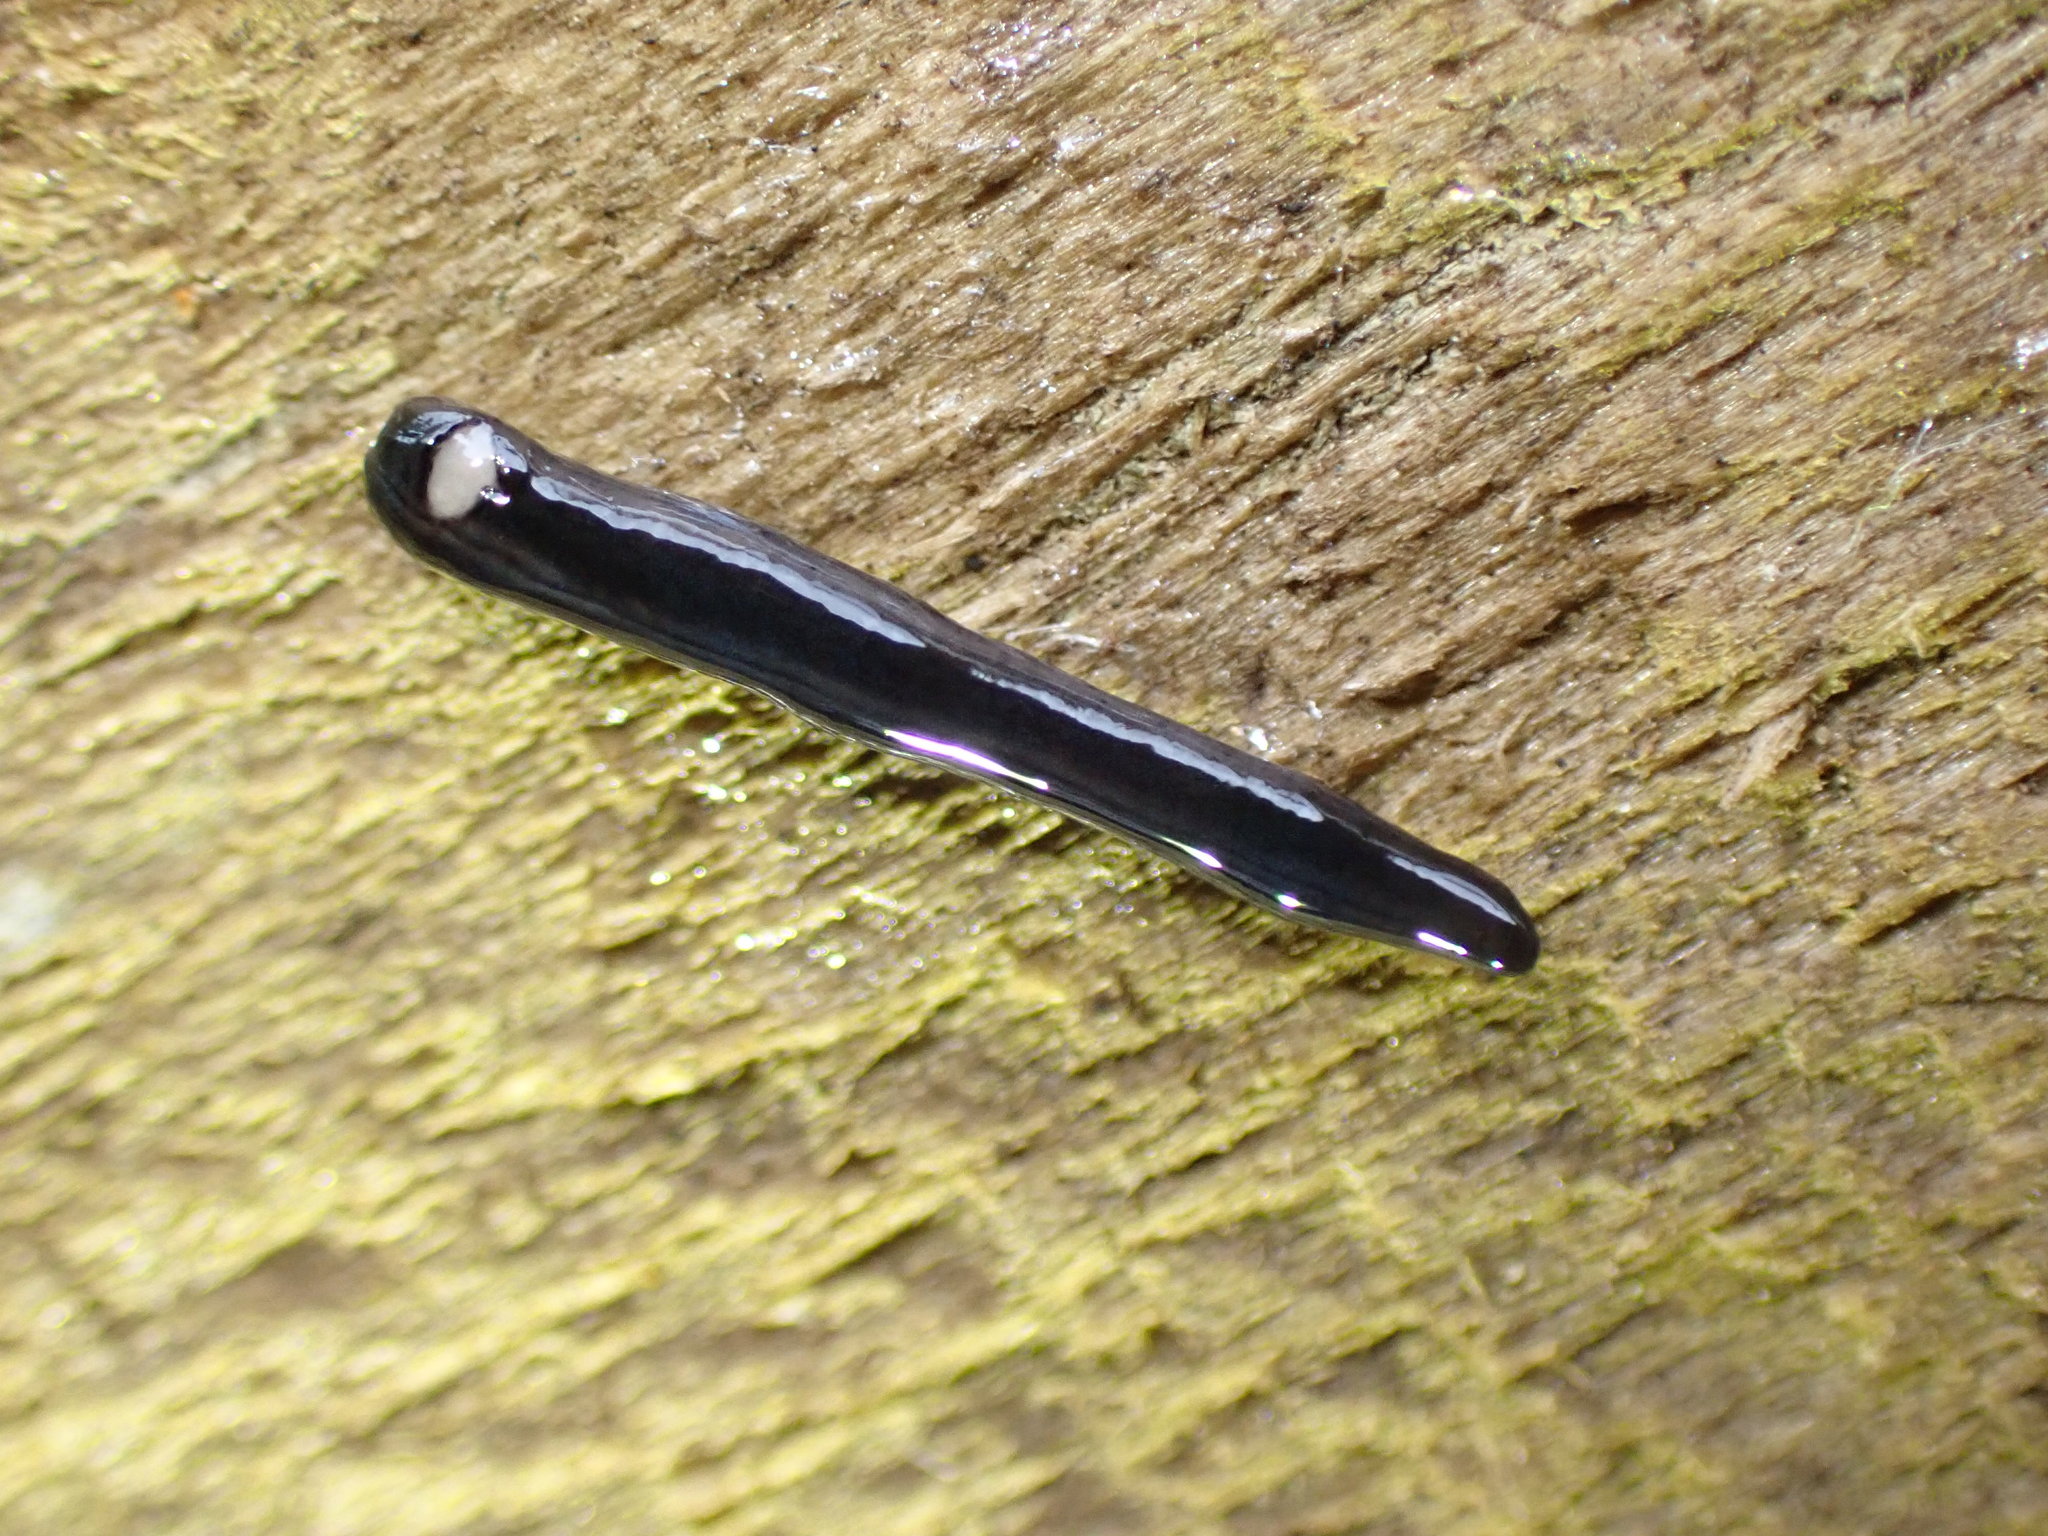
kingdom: Animalia
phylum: Platyhelminthes
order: Tricladida
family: Geoplanidae
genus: Parakontikia
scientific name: Parakontikia ventrolineata
